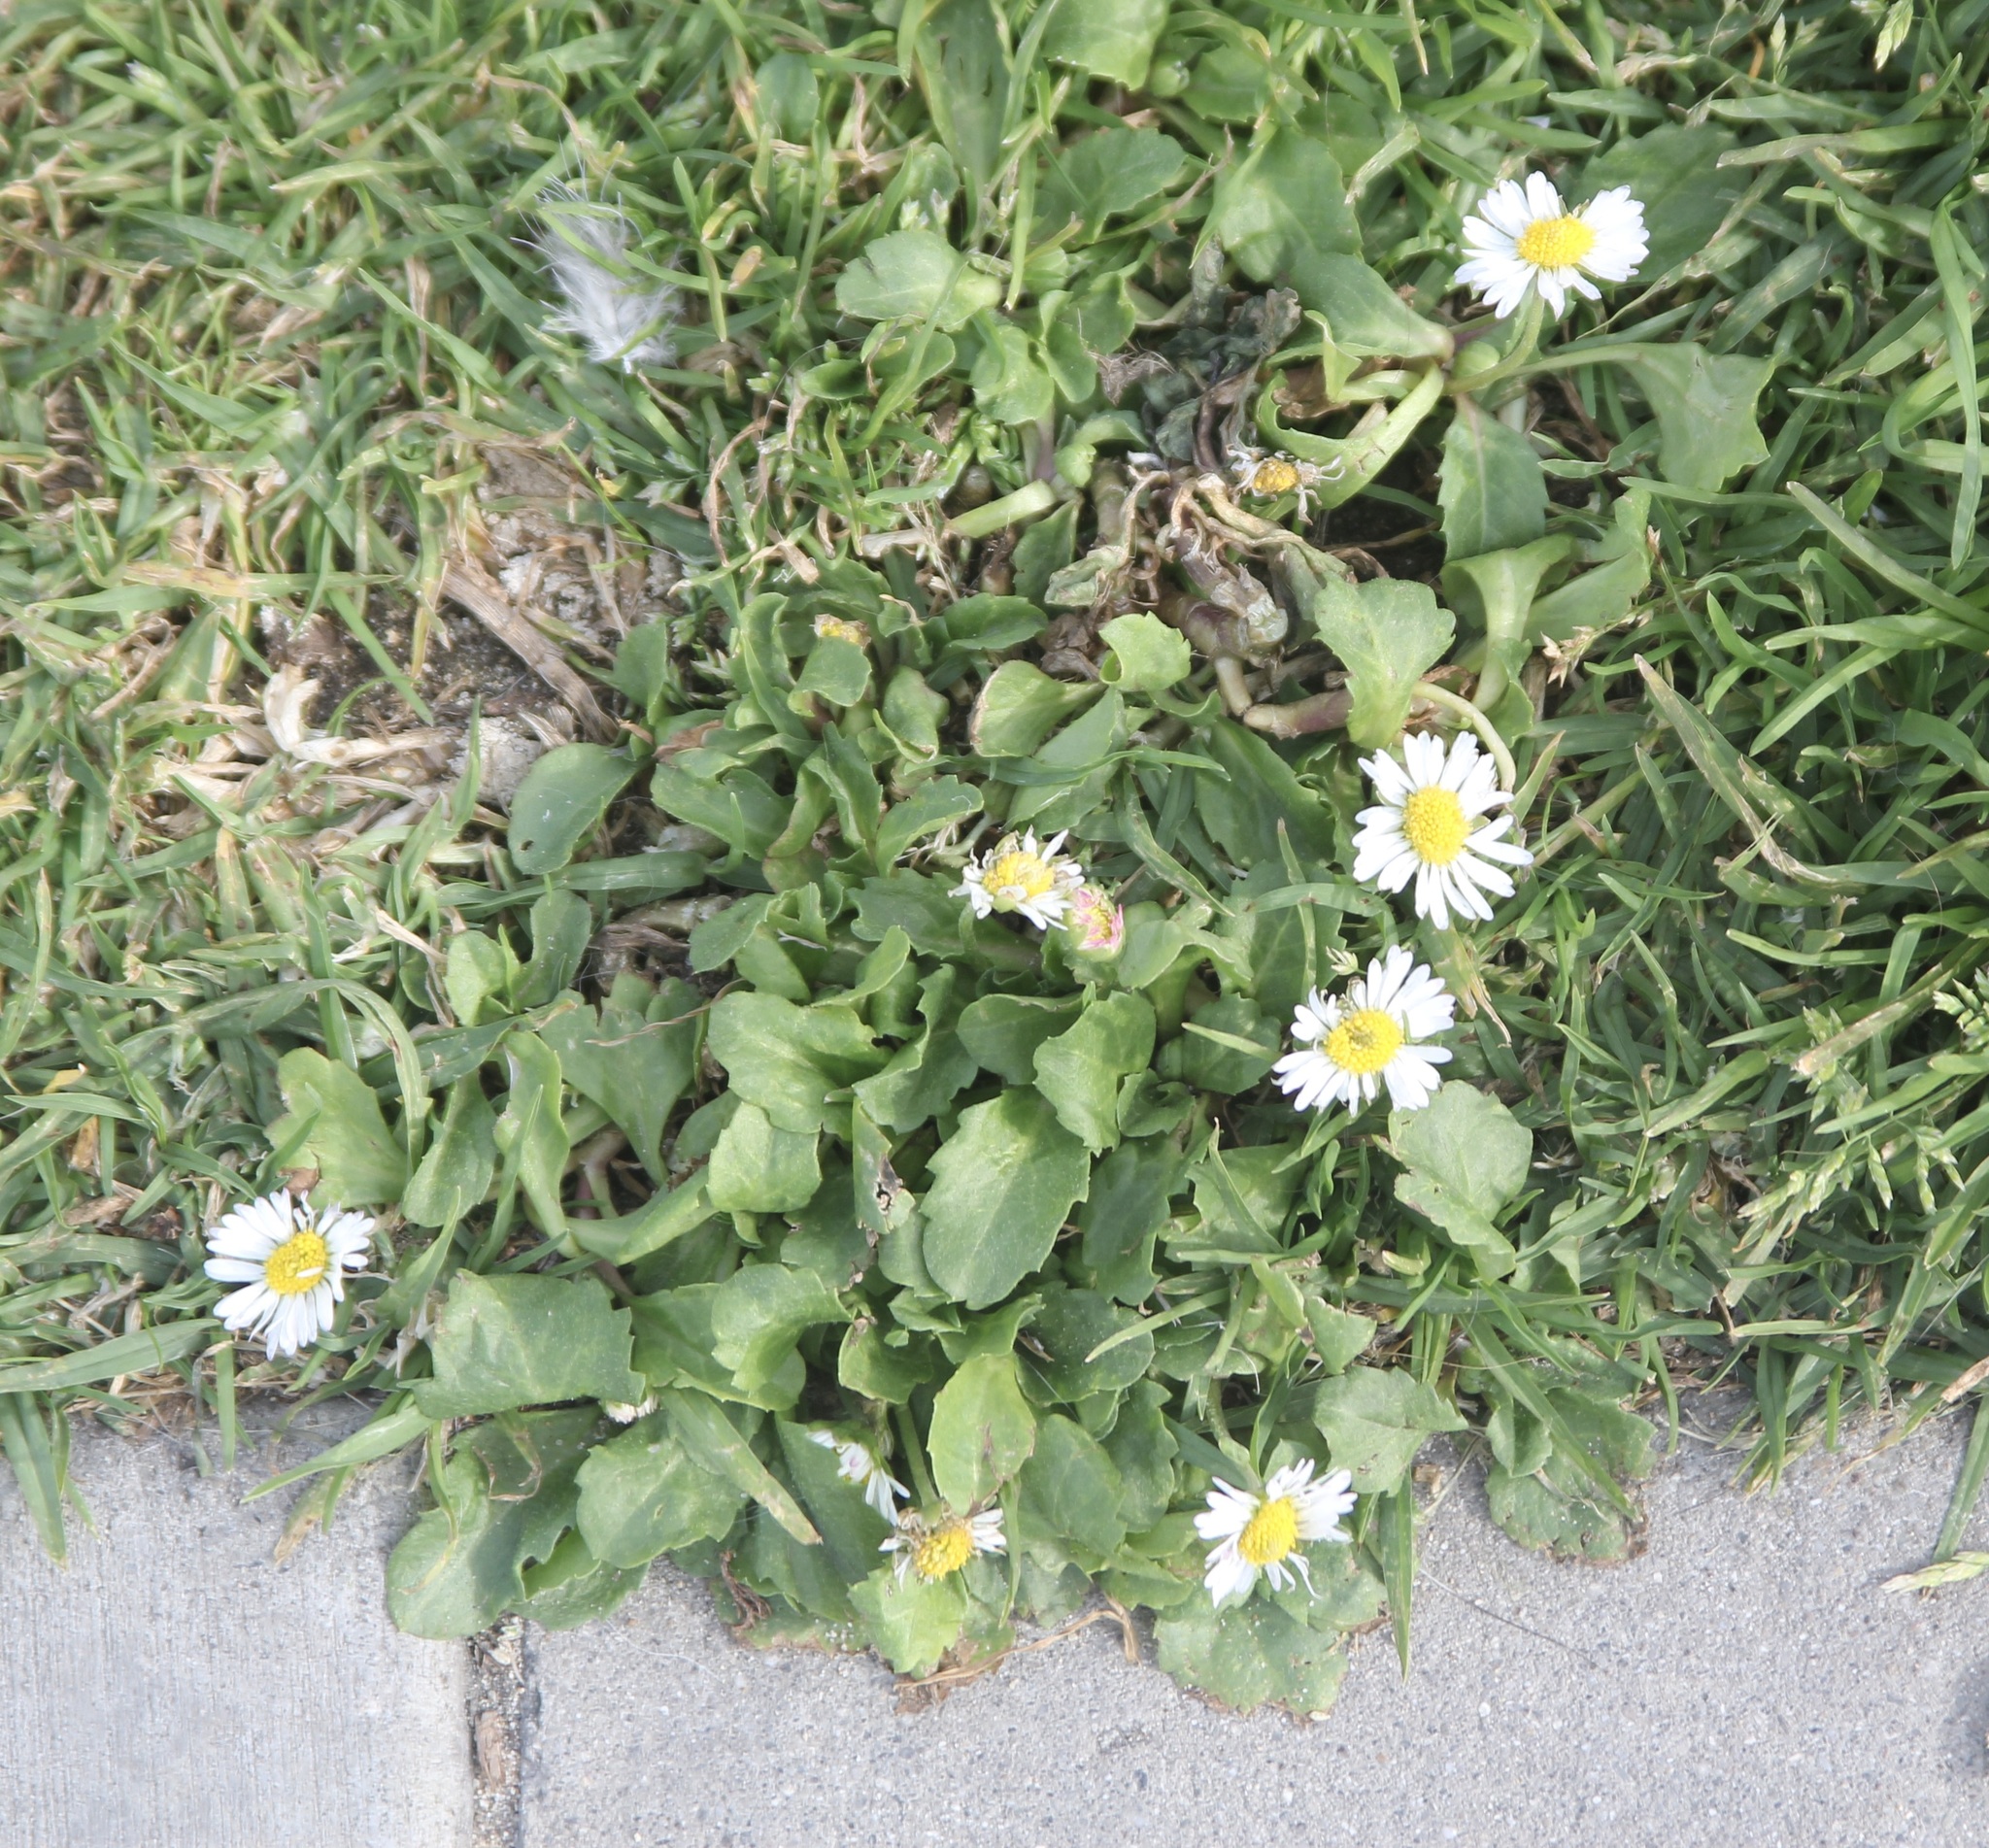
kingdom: Plantae
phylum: Tracheophyta
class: Magnoliopsida
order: Asterales
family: Asteraceae
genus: Bellis
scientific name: Bellis perennis
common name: Lawndaisy
